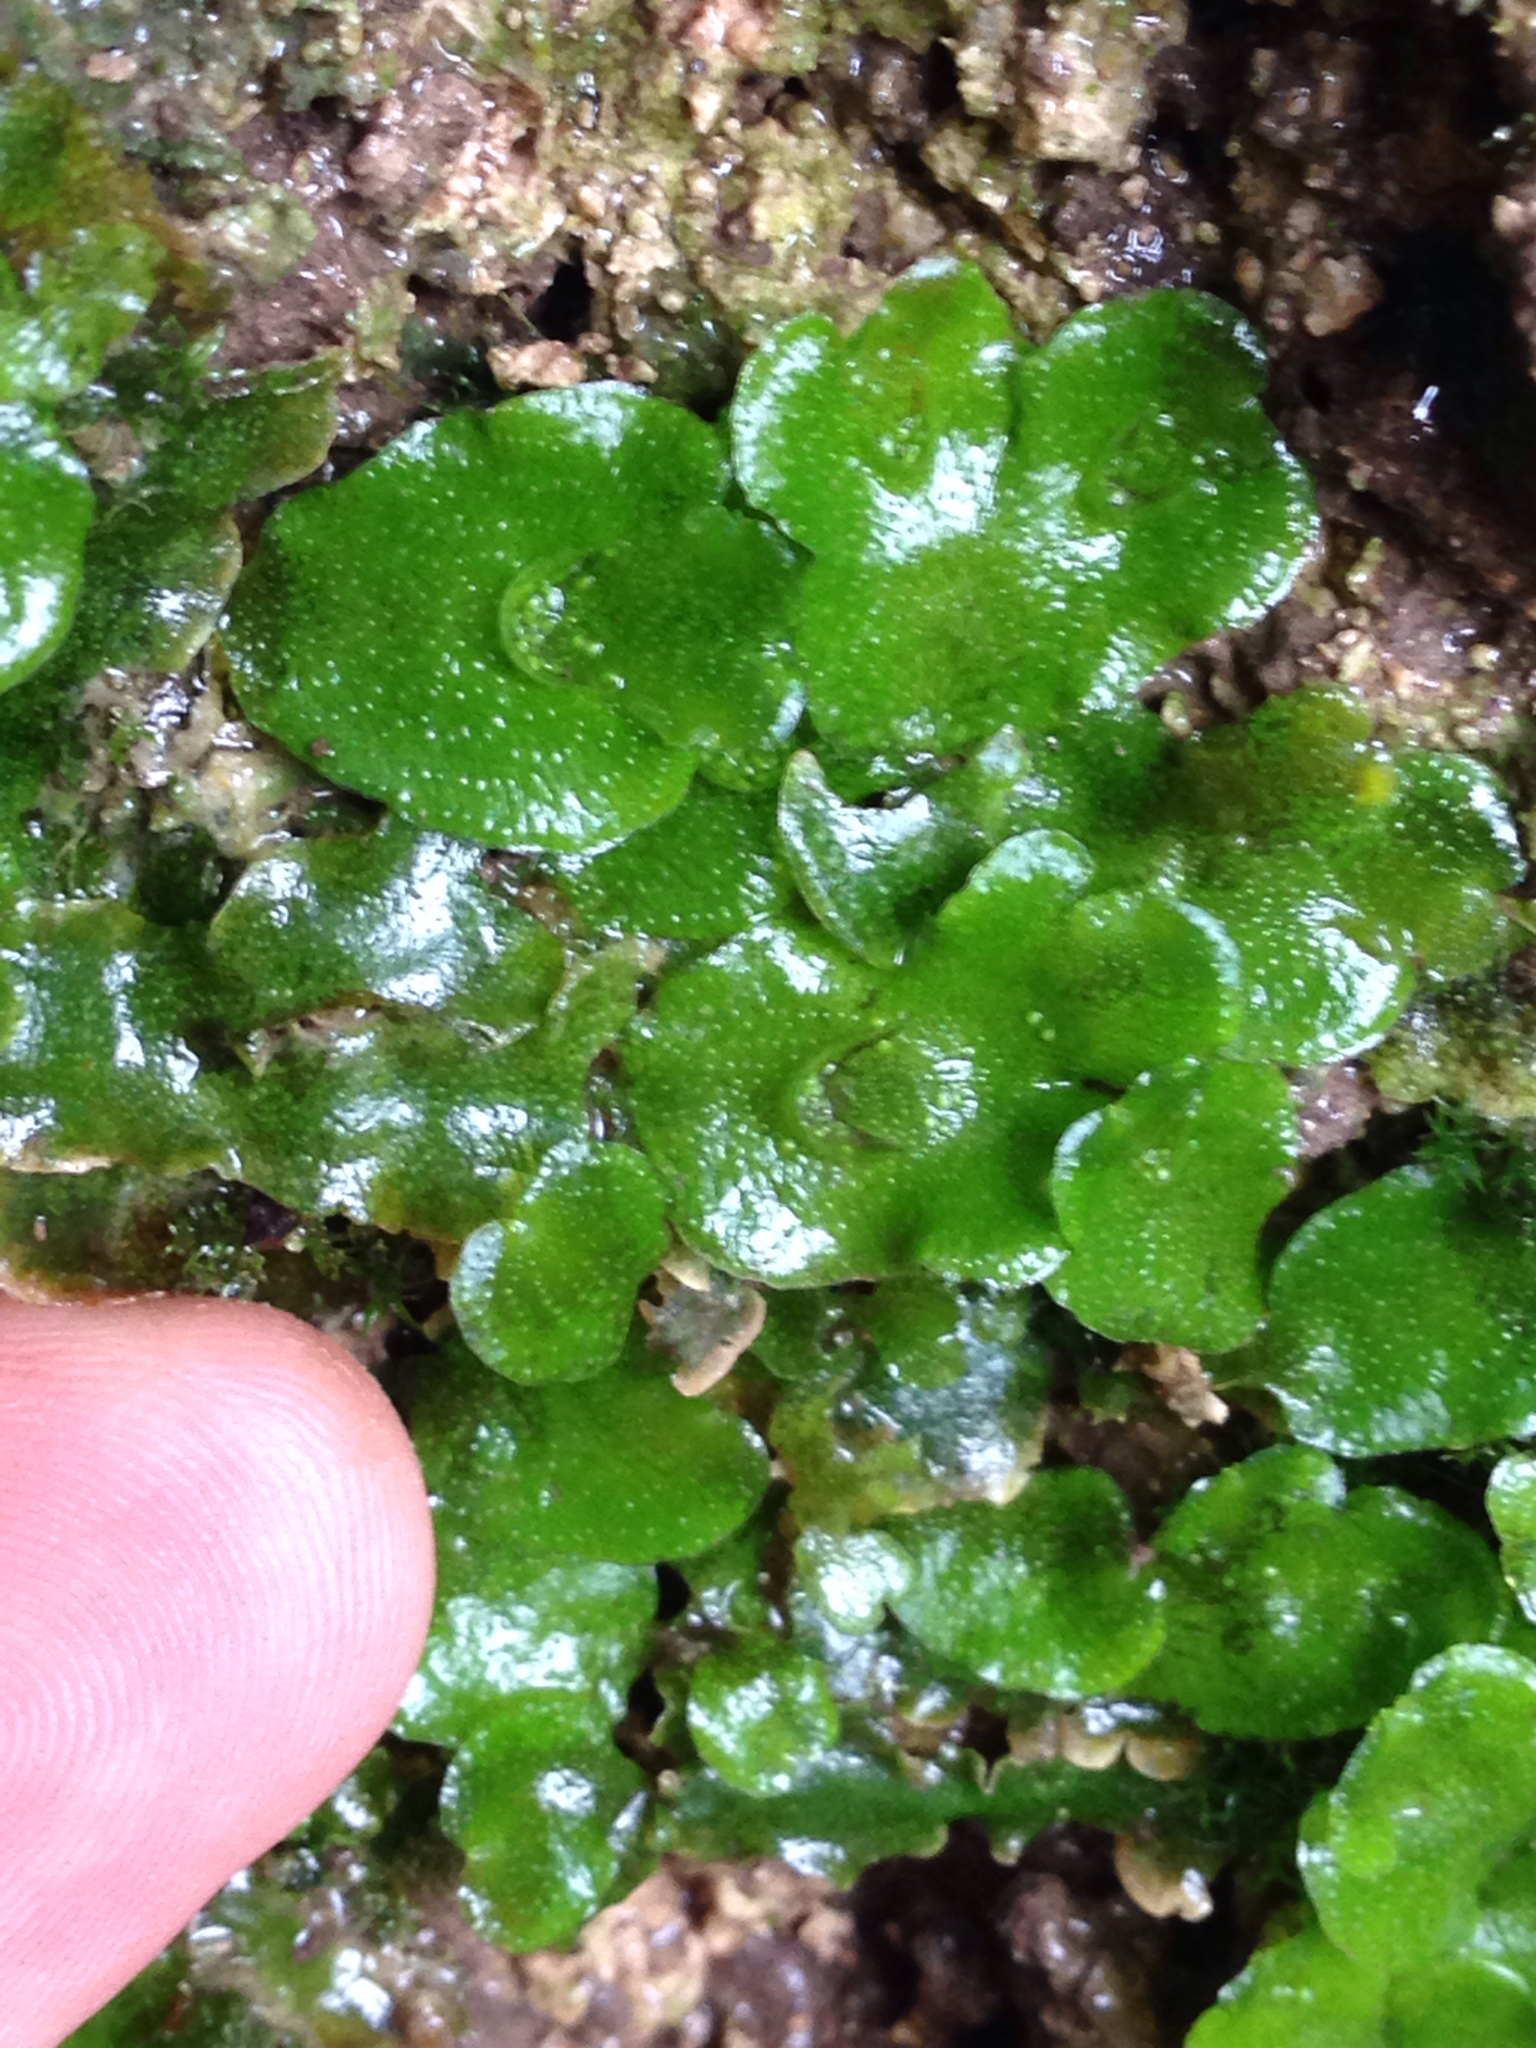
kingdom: Plantae
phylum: Marchantiophyta
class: Marchantiopsida
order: Lunulariales
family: Lunulariaceae
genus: Lunularia
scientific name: Lunularia cruciata
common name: Crescent-cup liverwort
